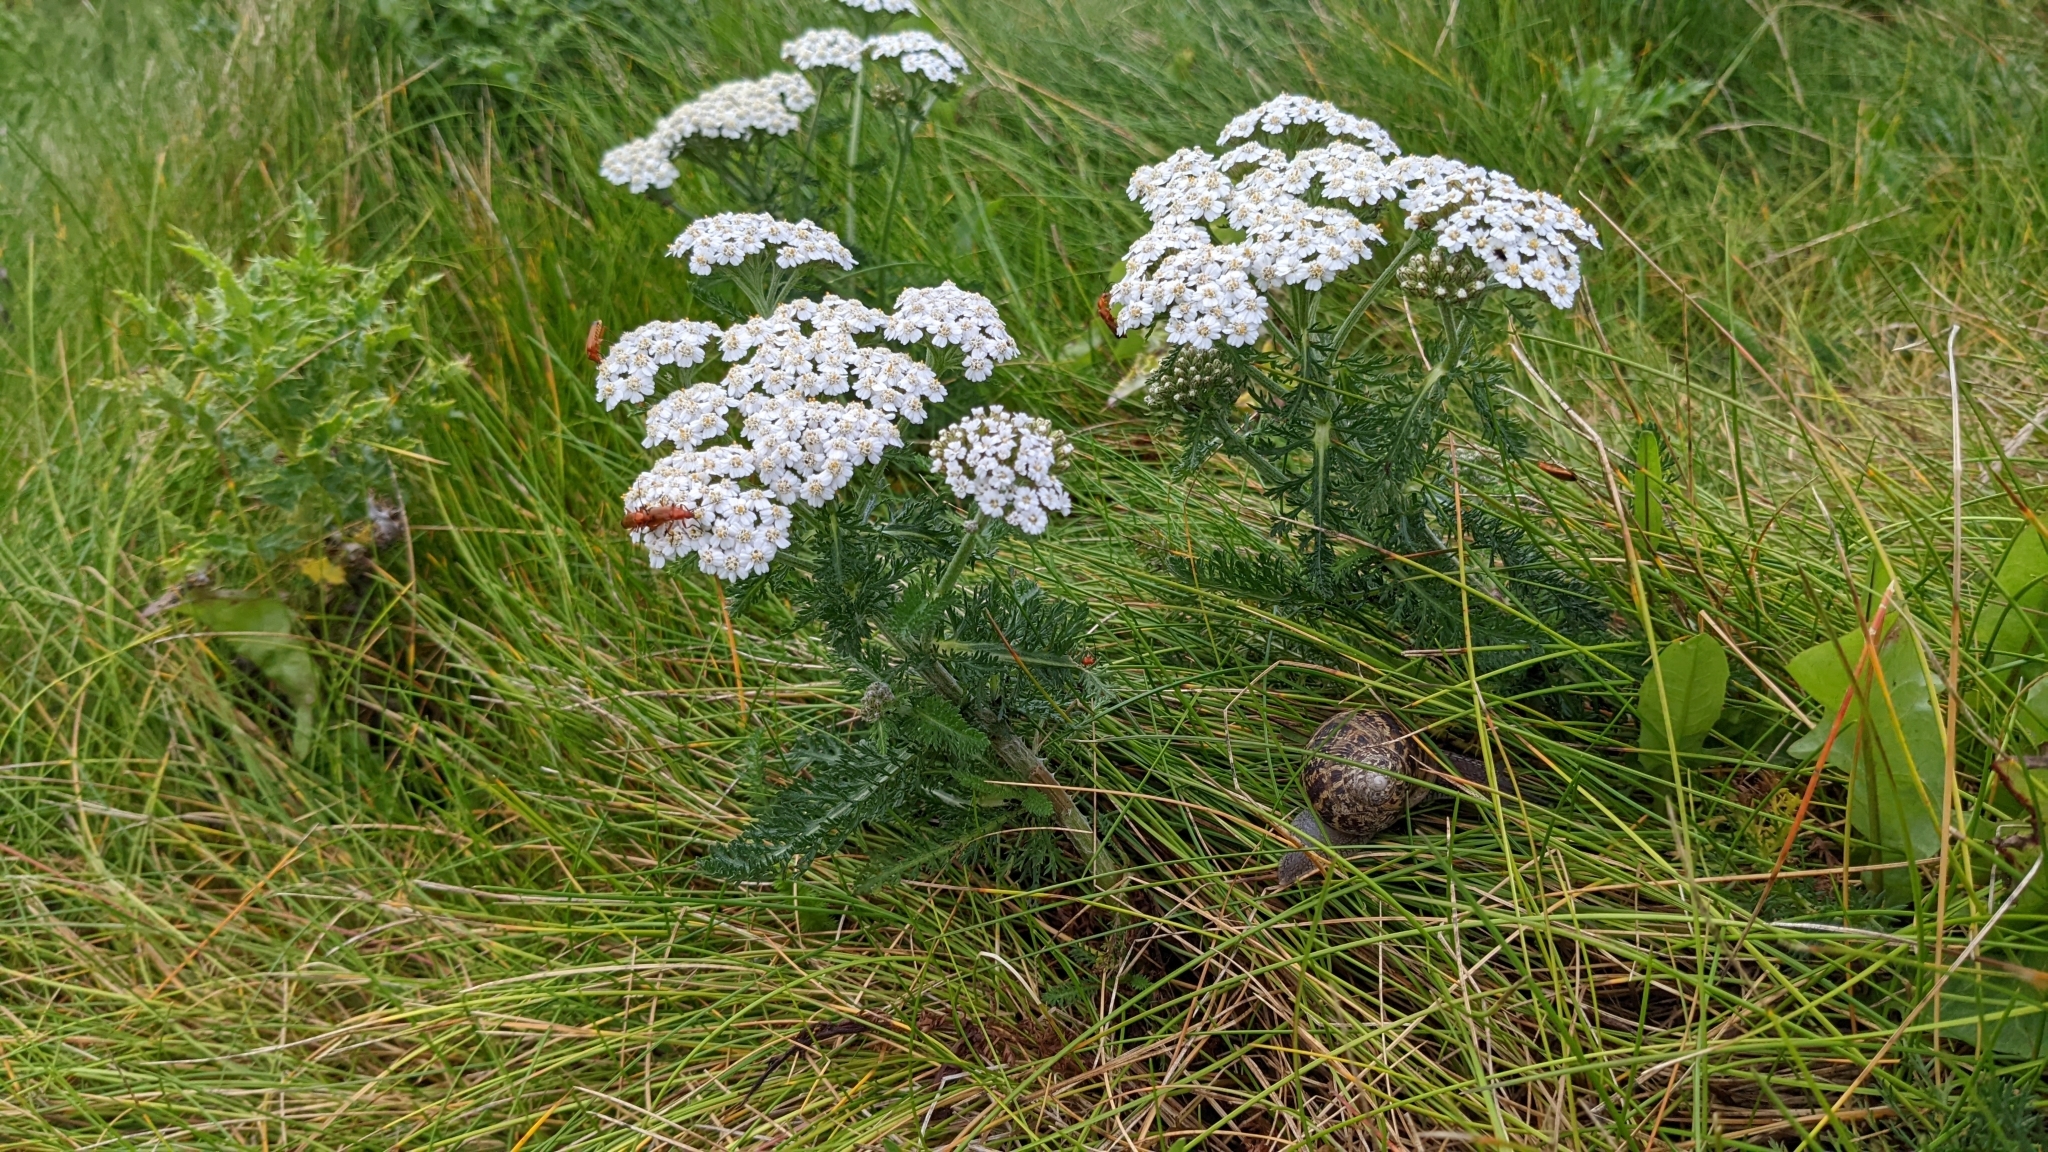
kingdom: Plantae
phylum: Tracheophyta
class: Magnoliopsida
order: Asterales
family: Asteraceae
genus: Achillea
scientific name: Achillea millefolium
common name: Yarrow
